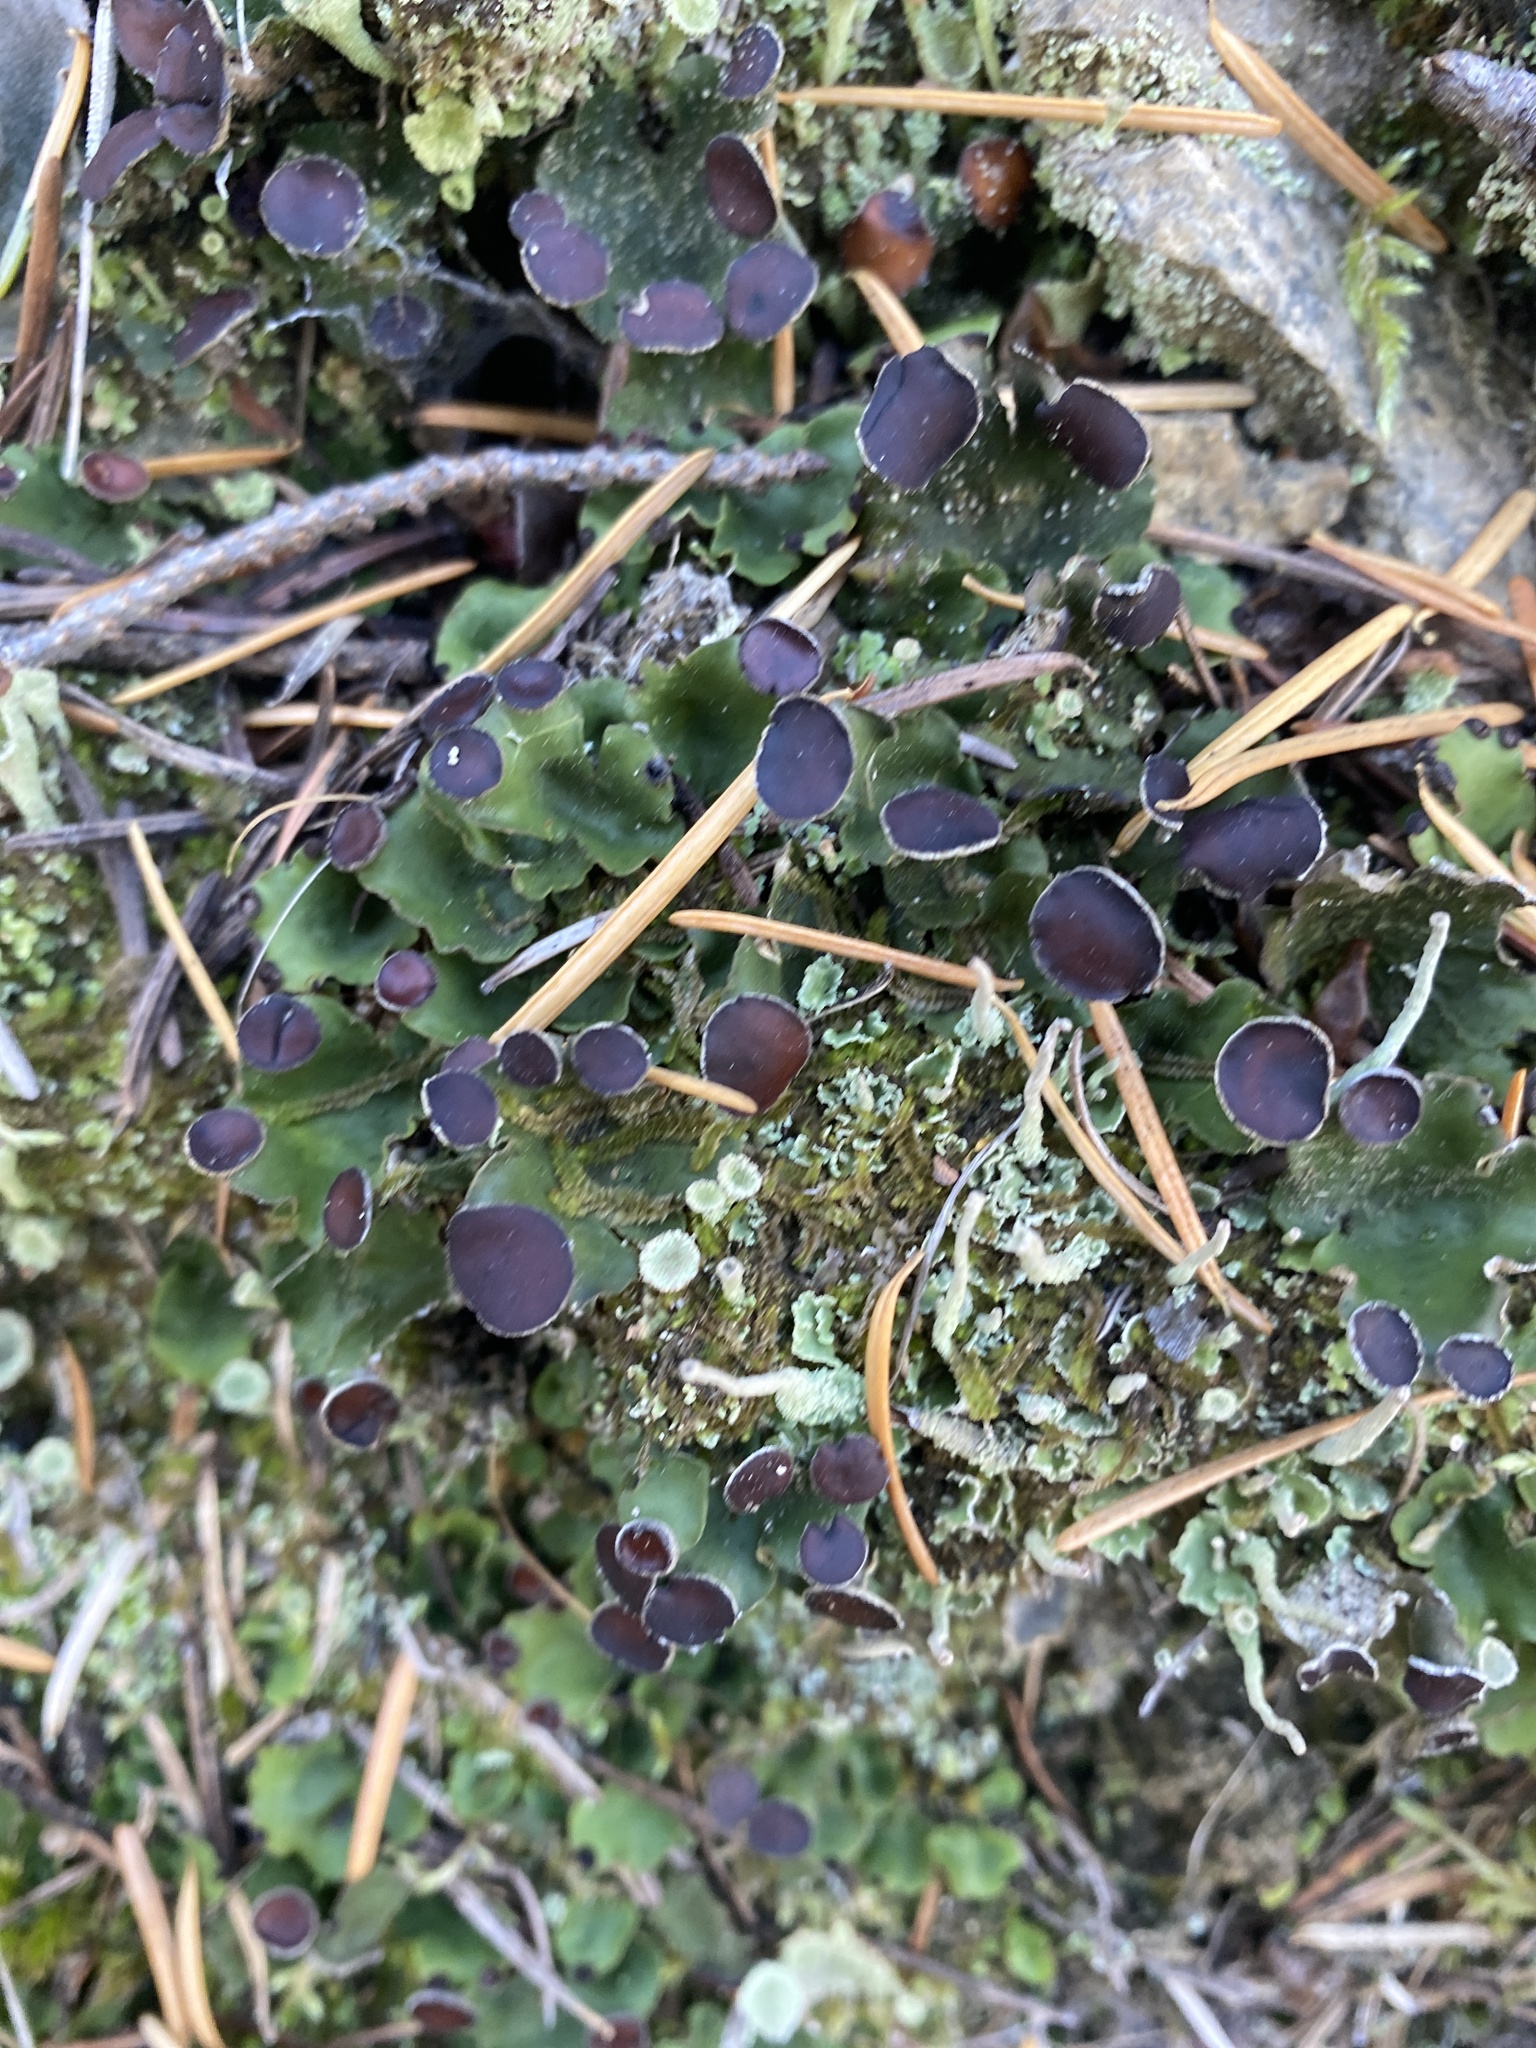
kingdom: Fungi
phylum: Ascomycota
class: Lecanoromycetes
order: Peltigerales
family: Peltigeraceae
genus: Peltigera
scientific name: Peltigera venosa
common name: Pixie gowns lichen
